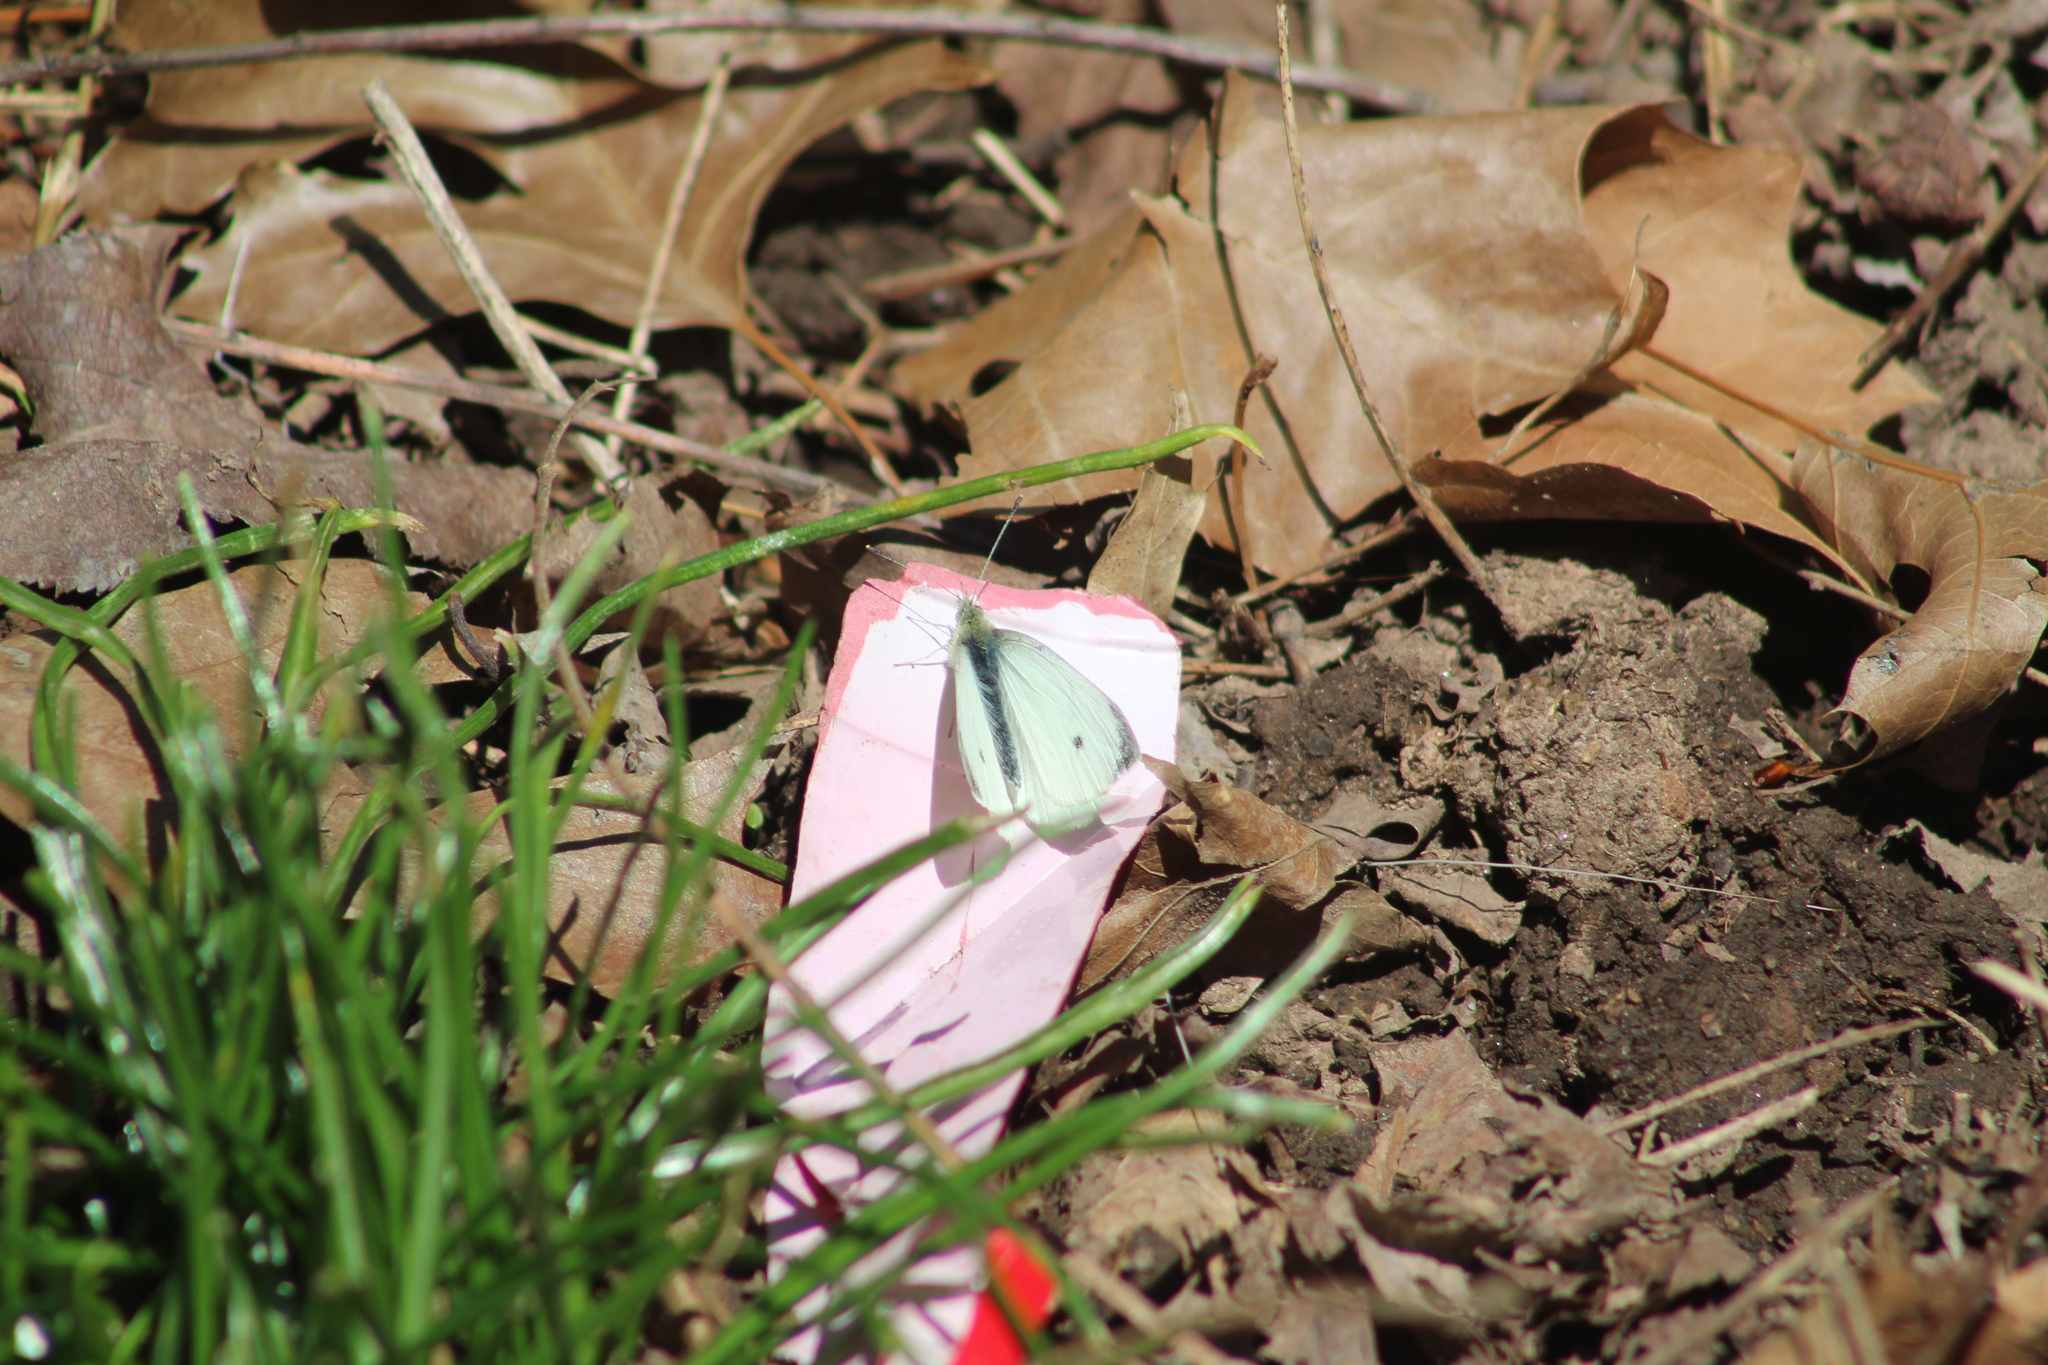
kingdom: Animalia
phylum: Arthropoda
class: Insecta
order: Lepidoptera
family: Pieridae
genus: Pieris
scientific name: Pieris rapae
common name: Small white
